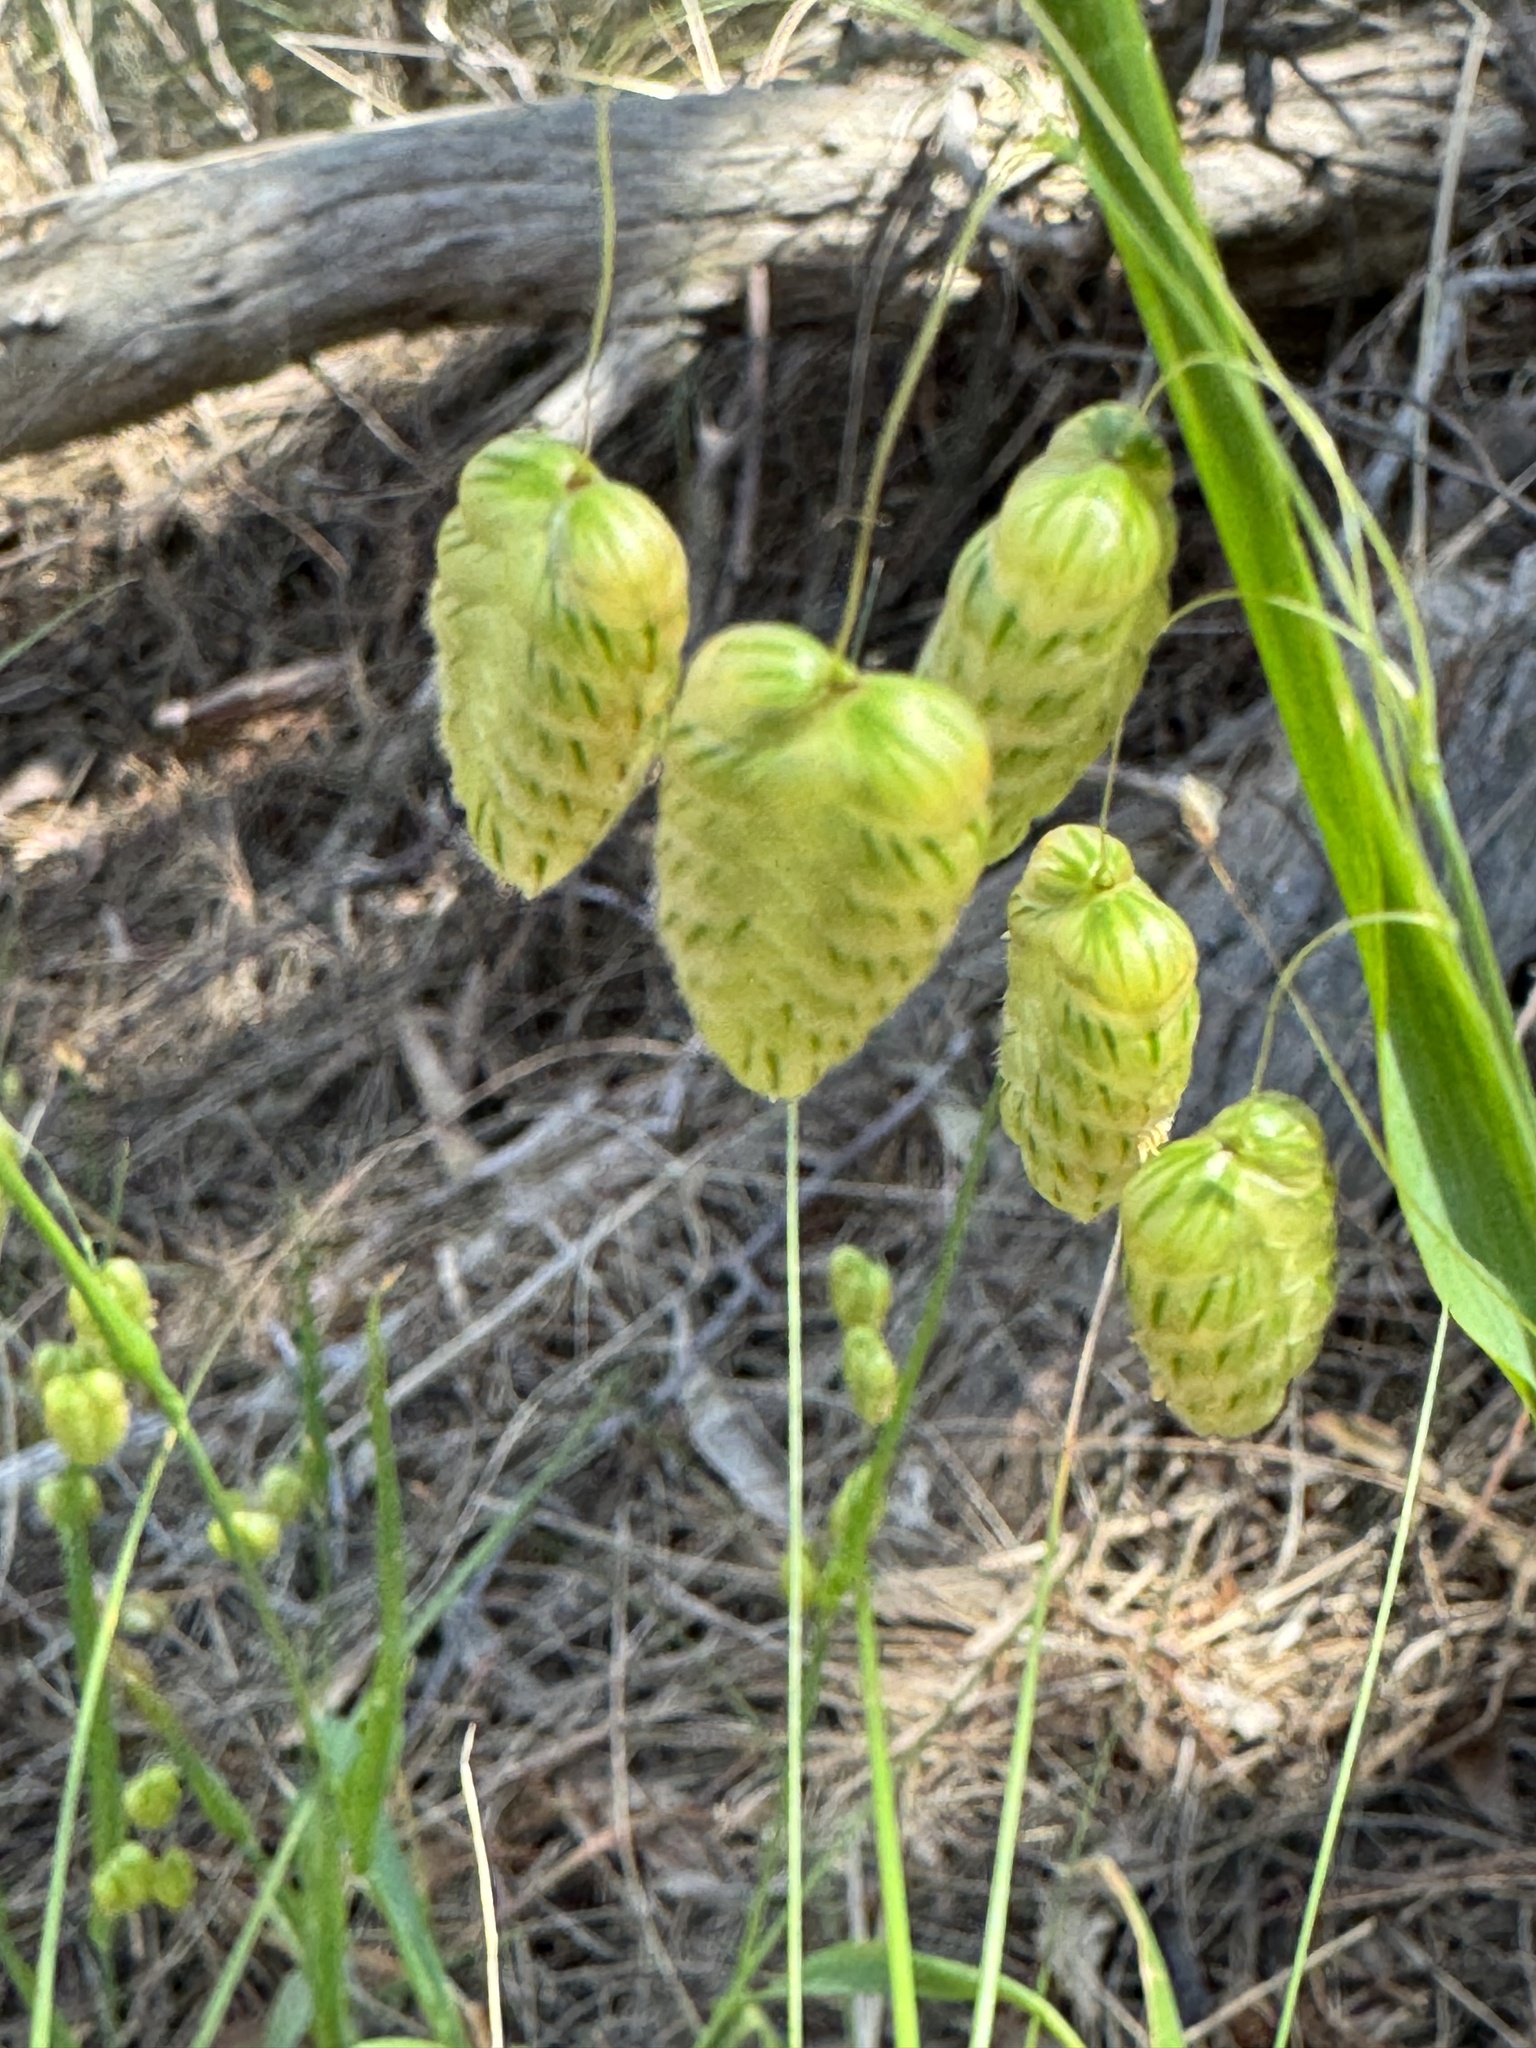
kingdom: Plantae
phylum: Tracheophyta
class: Liliopsida
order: Poales
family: Poaceae
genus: Briza
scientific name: Briza maxima
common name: Big quakinggrass
